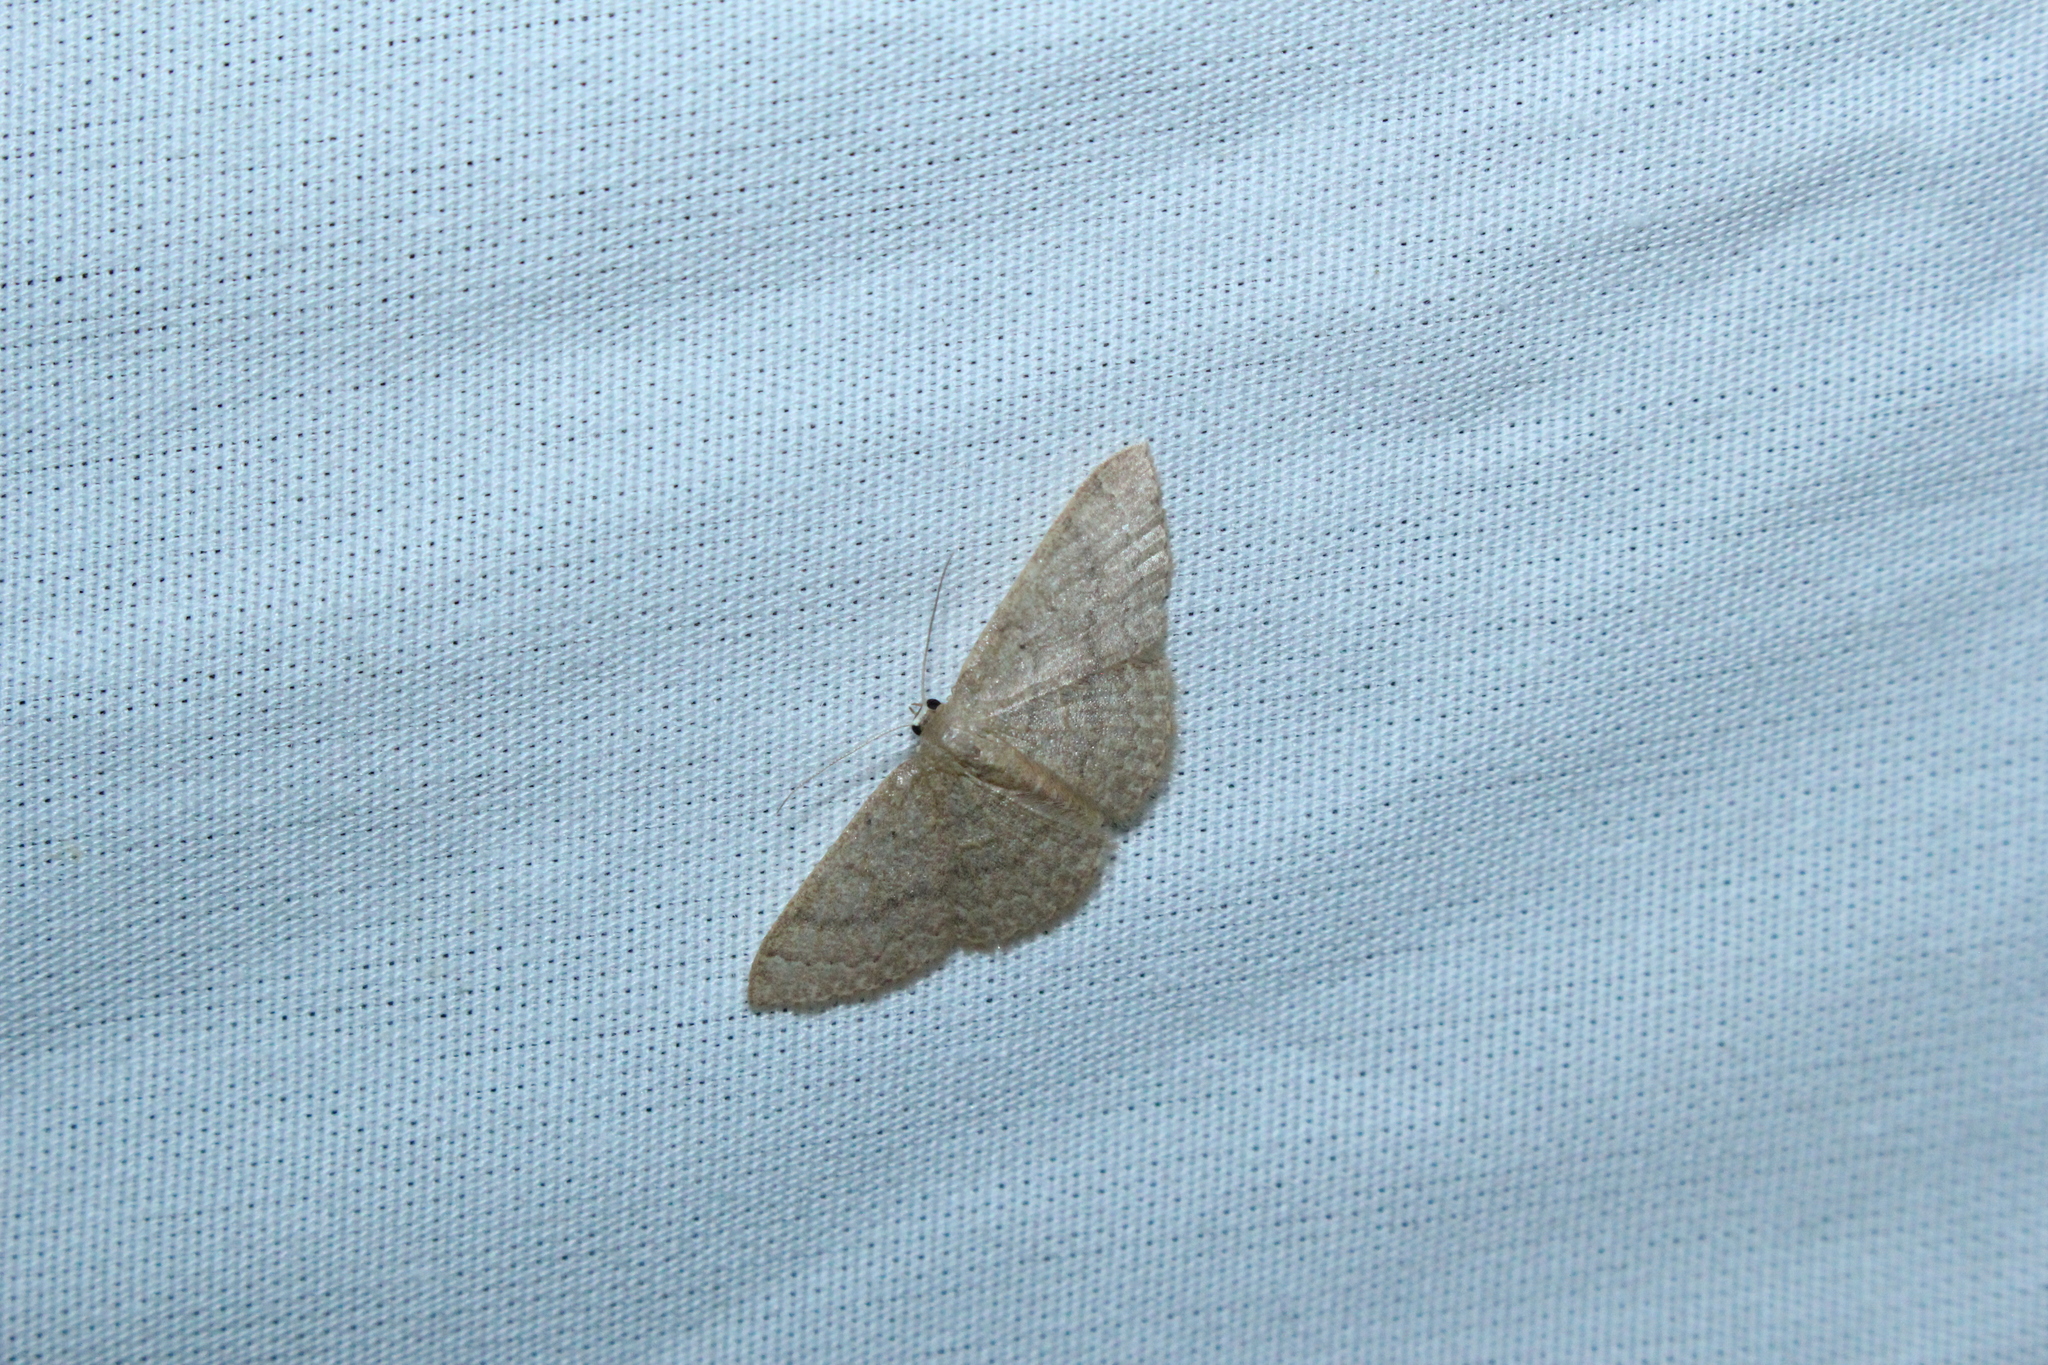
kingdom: Animalia
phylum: Arthropoda
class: Insecta
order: Lepidoptera
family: Geometridae
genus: Pleuroprucha
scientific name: Pleuroprucha insulsaria
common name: Common tan wave
